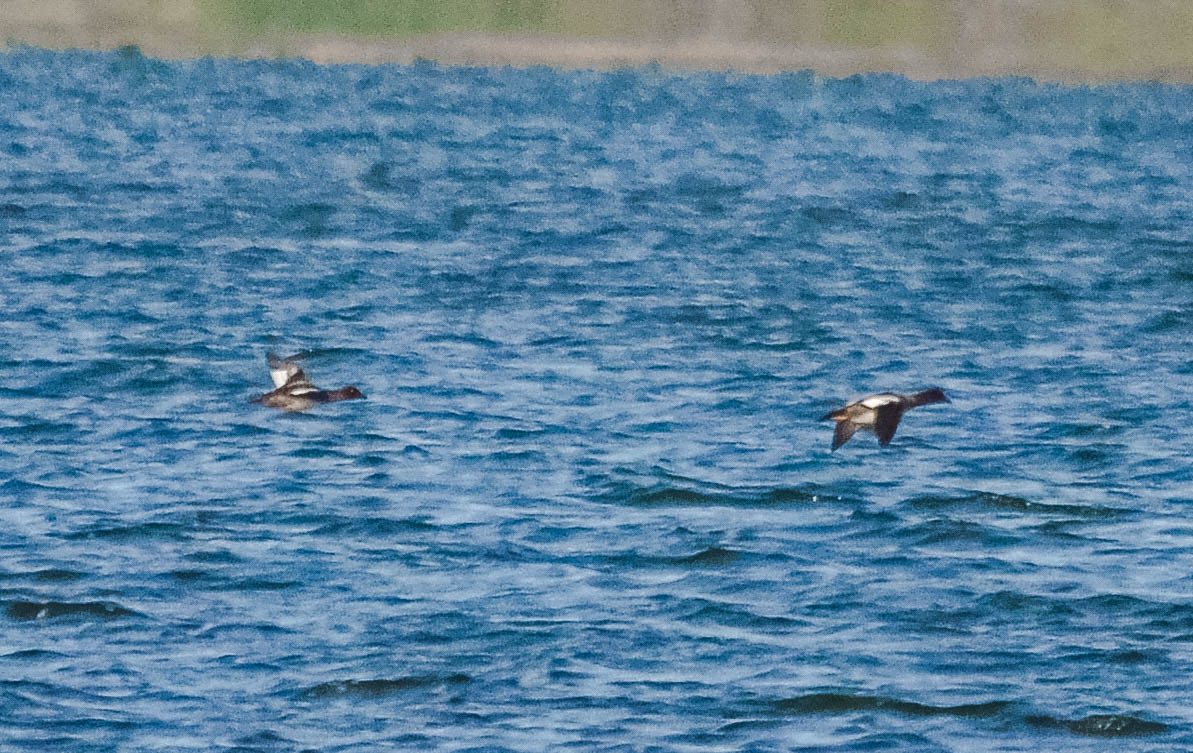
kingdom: Animalia
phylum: Chordata
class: Aves
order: Anseriformes
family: Anatidae
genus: Bucephala
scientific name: Bucephala clangula
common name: Common goldeneye
